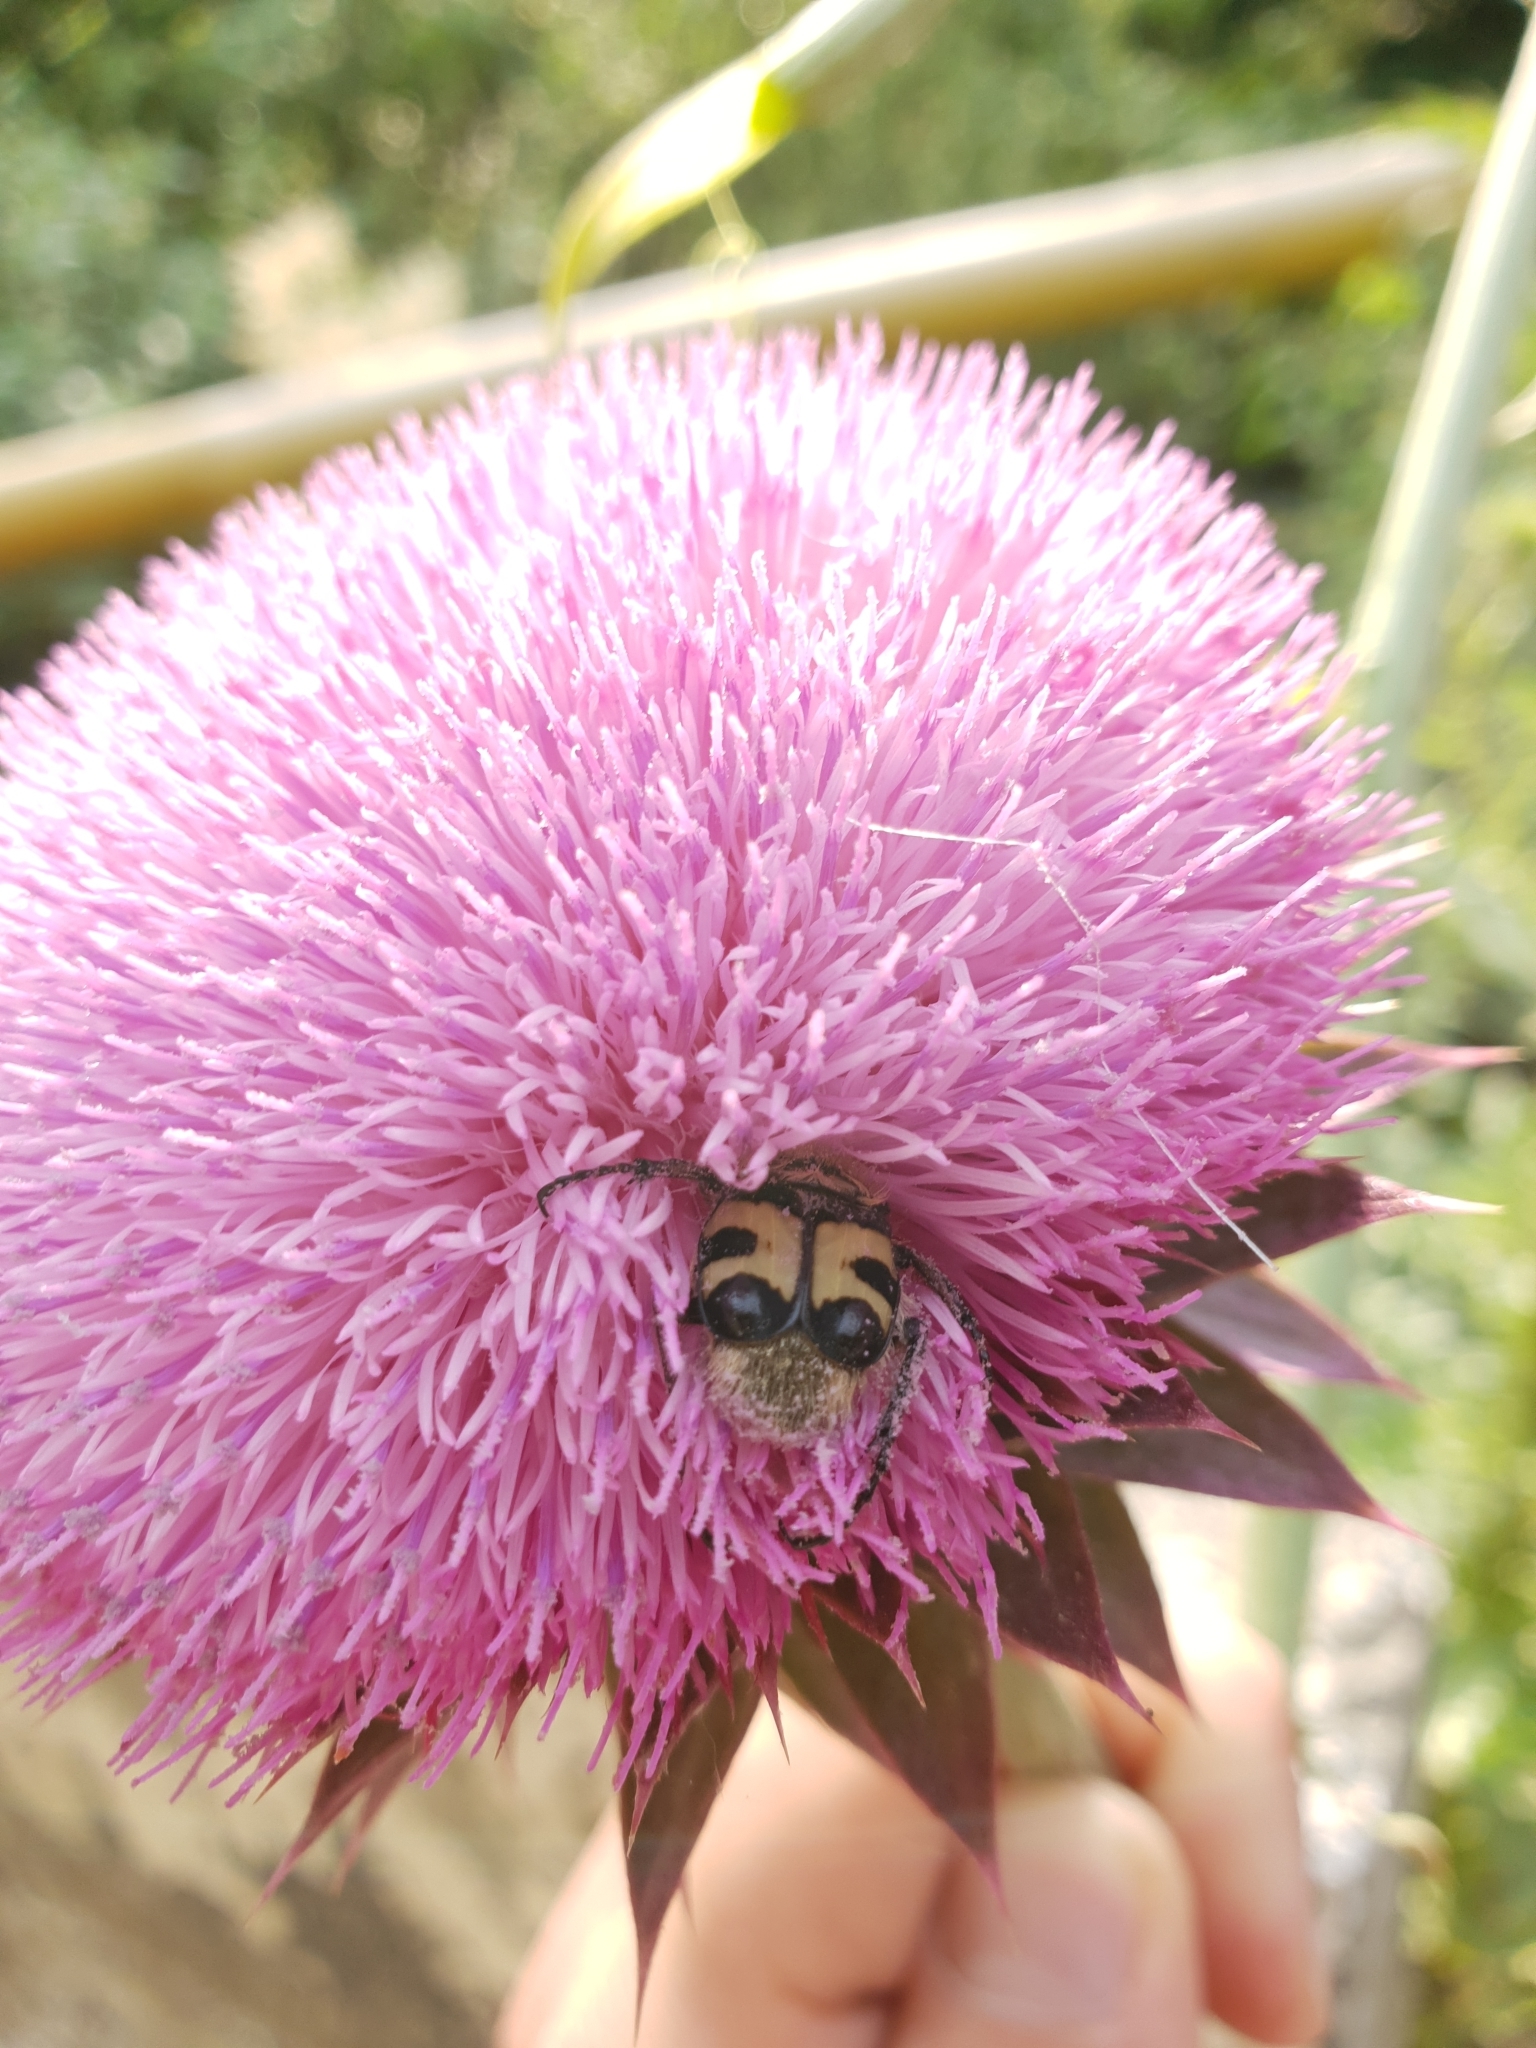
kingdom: Animalia
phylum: Arthropoda
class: Insecta
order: Coleoptera
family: Scarabaeidae
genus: Trichius
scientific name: Trichius fasciatus
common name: Bee beetle
